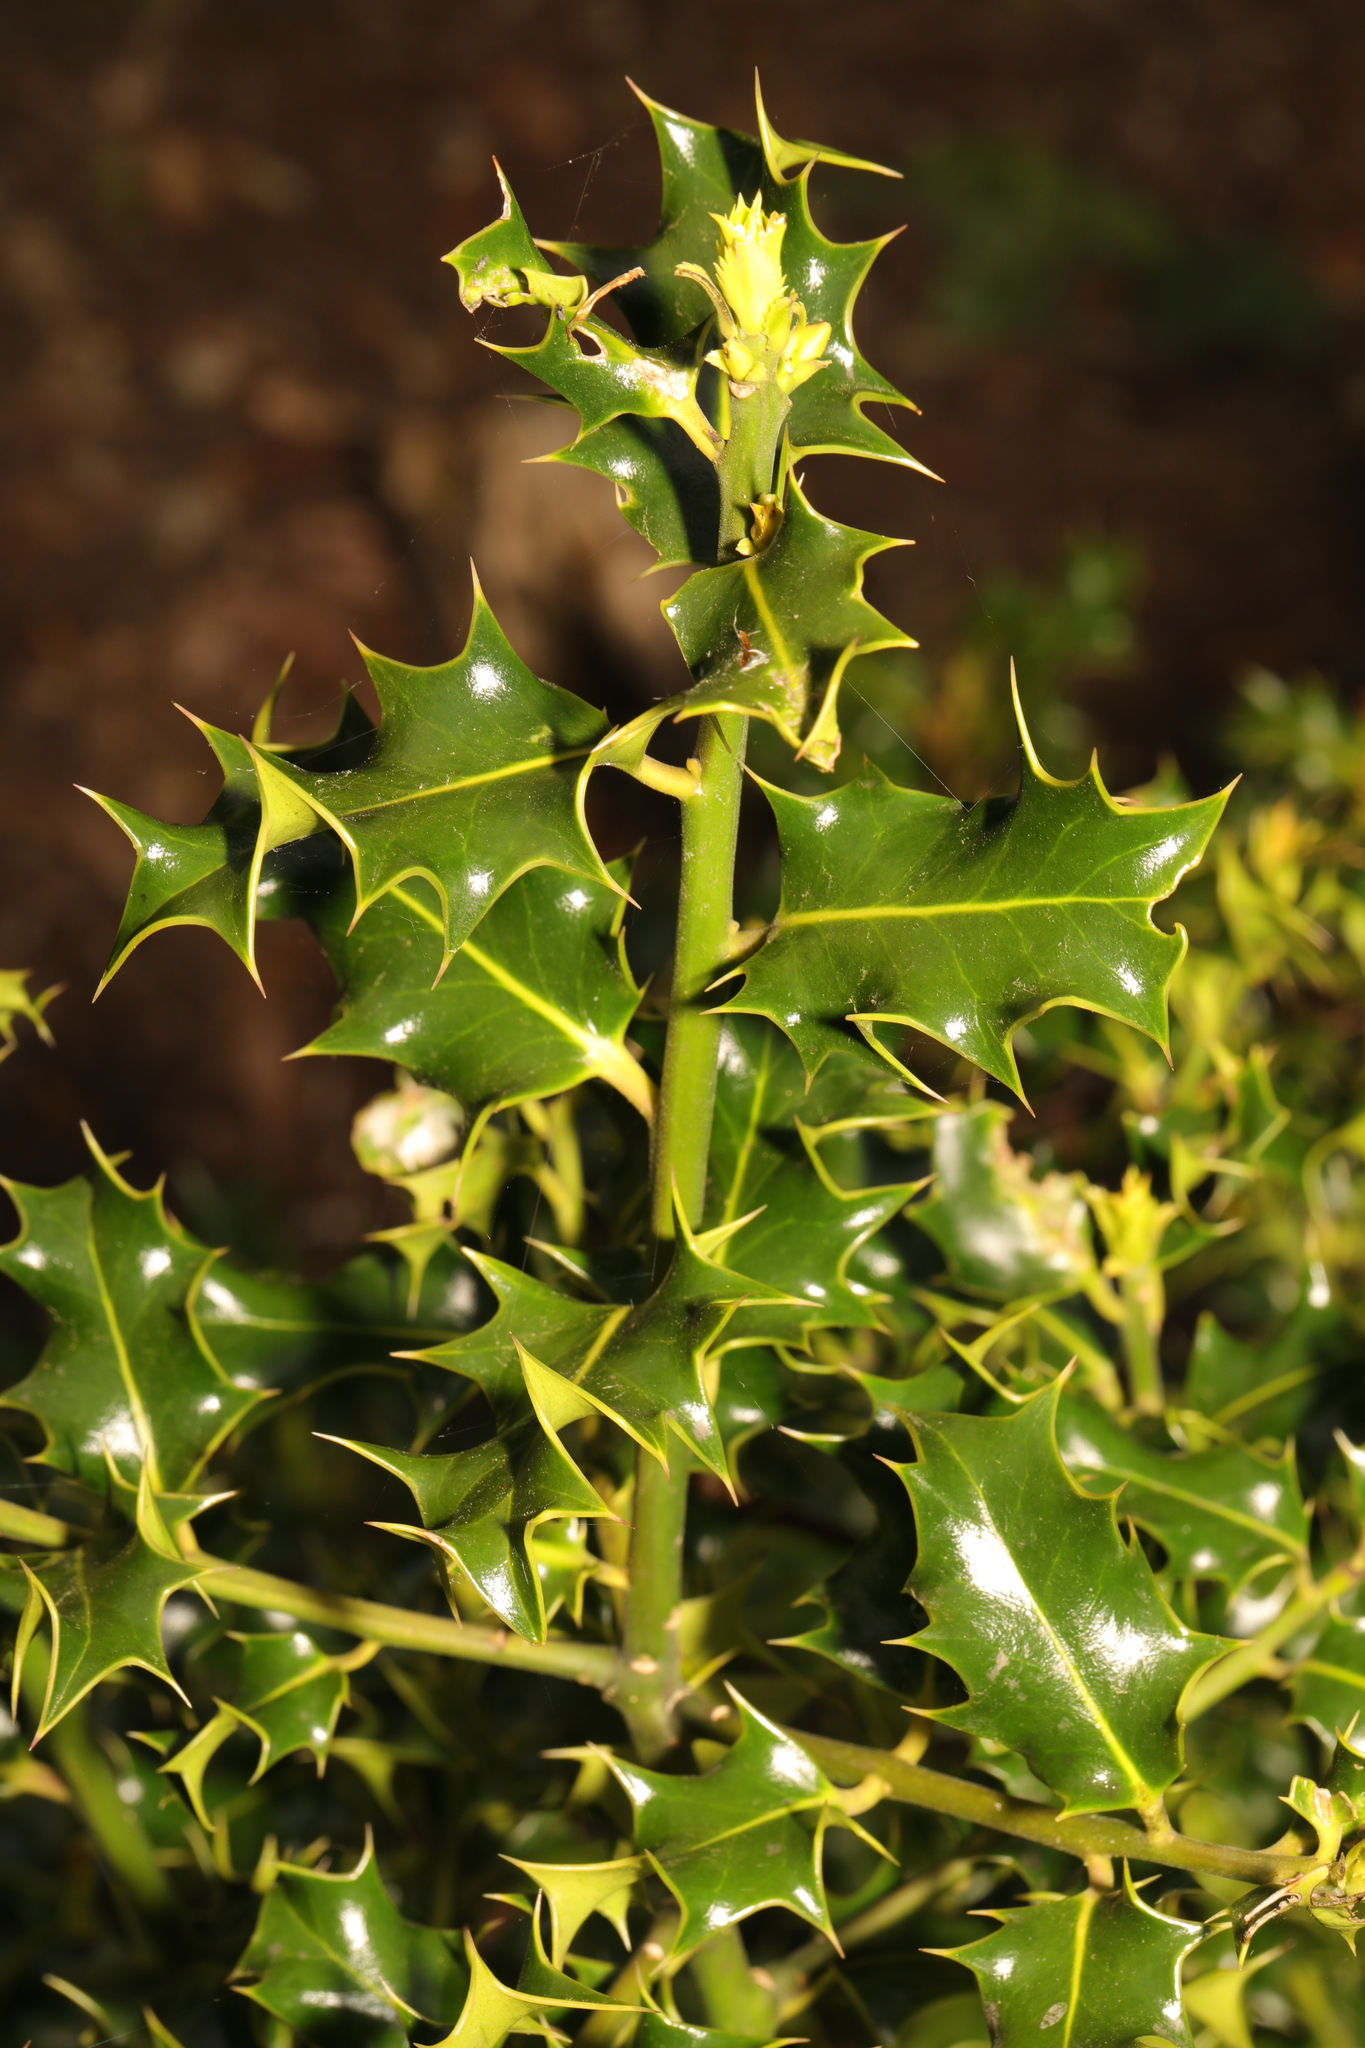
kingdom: Plantae
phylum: Tracheophyta
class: Magnoliopsida
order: Aquifoliales
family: Aquifoliaceae
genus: Ilex
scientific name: Ilex aquifolium
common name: English holly
